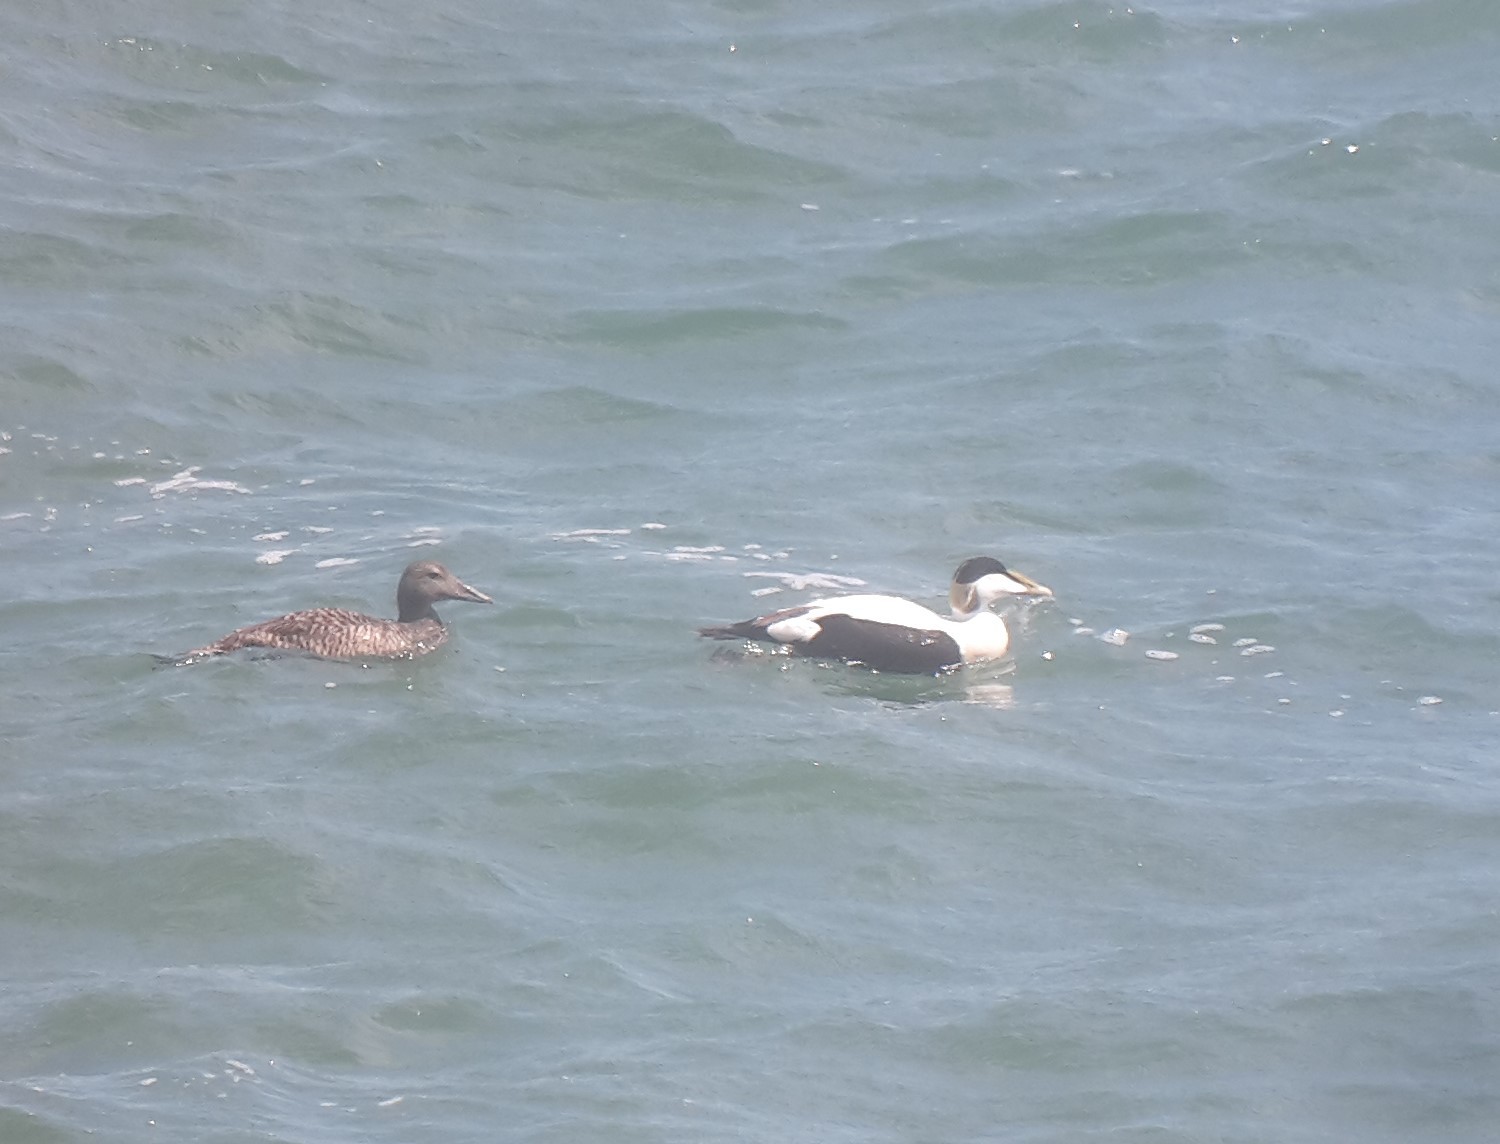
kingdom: Animalia
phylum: Chordata
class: Aves
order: Anseriformes
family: Anatidae
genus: Somateria
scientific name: Somateria mollissima
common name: Common eider
